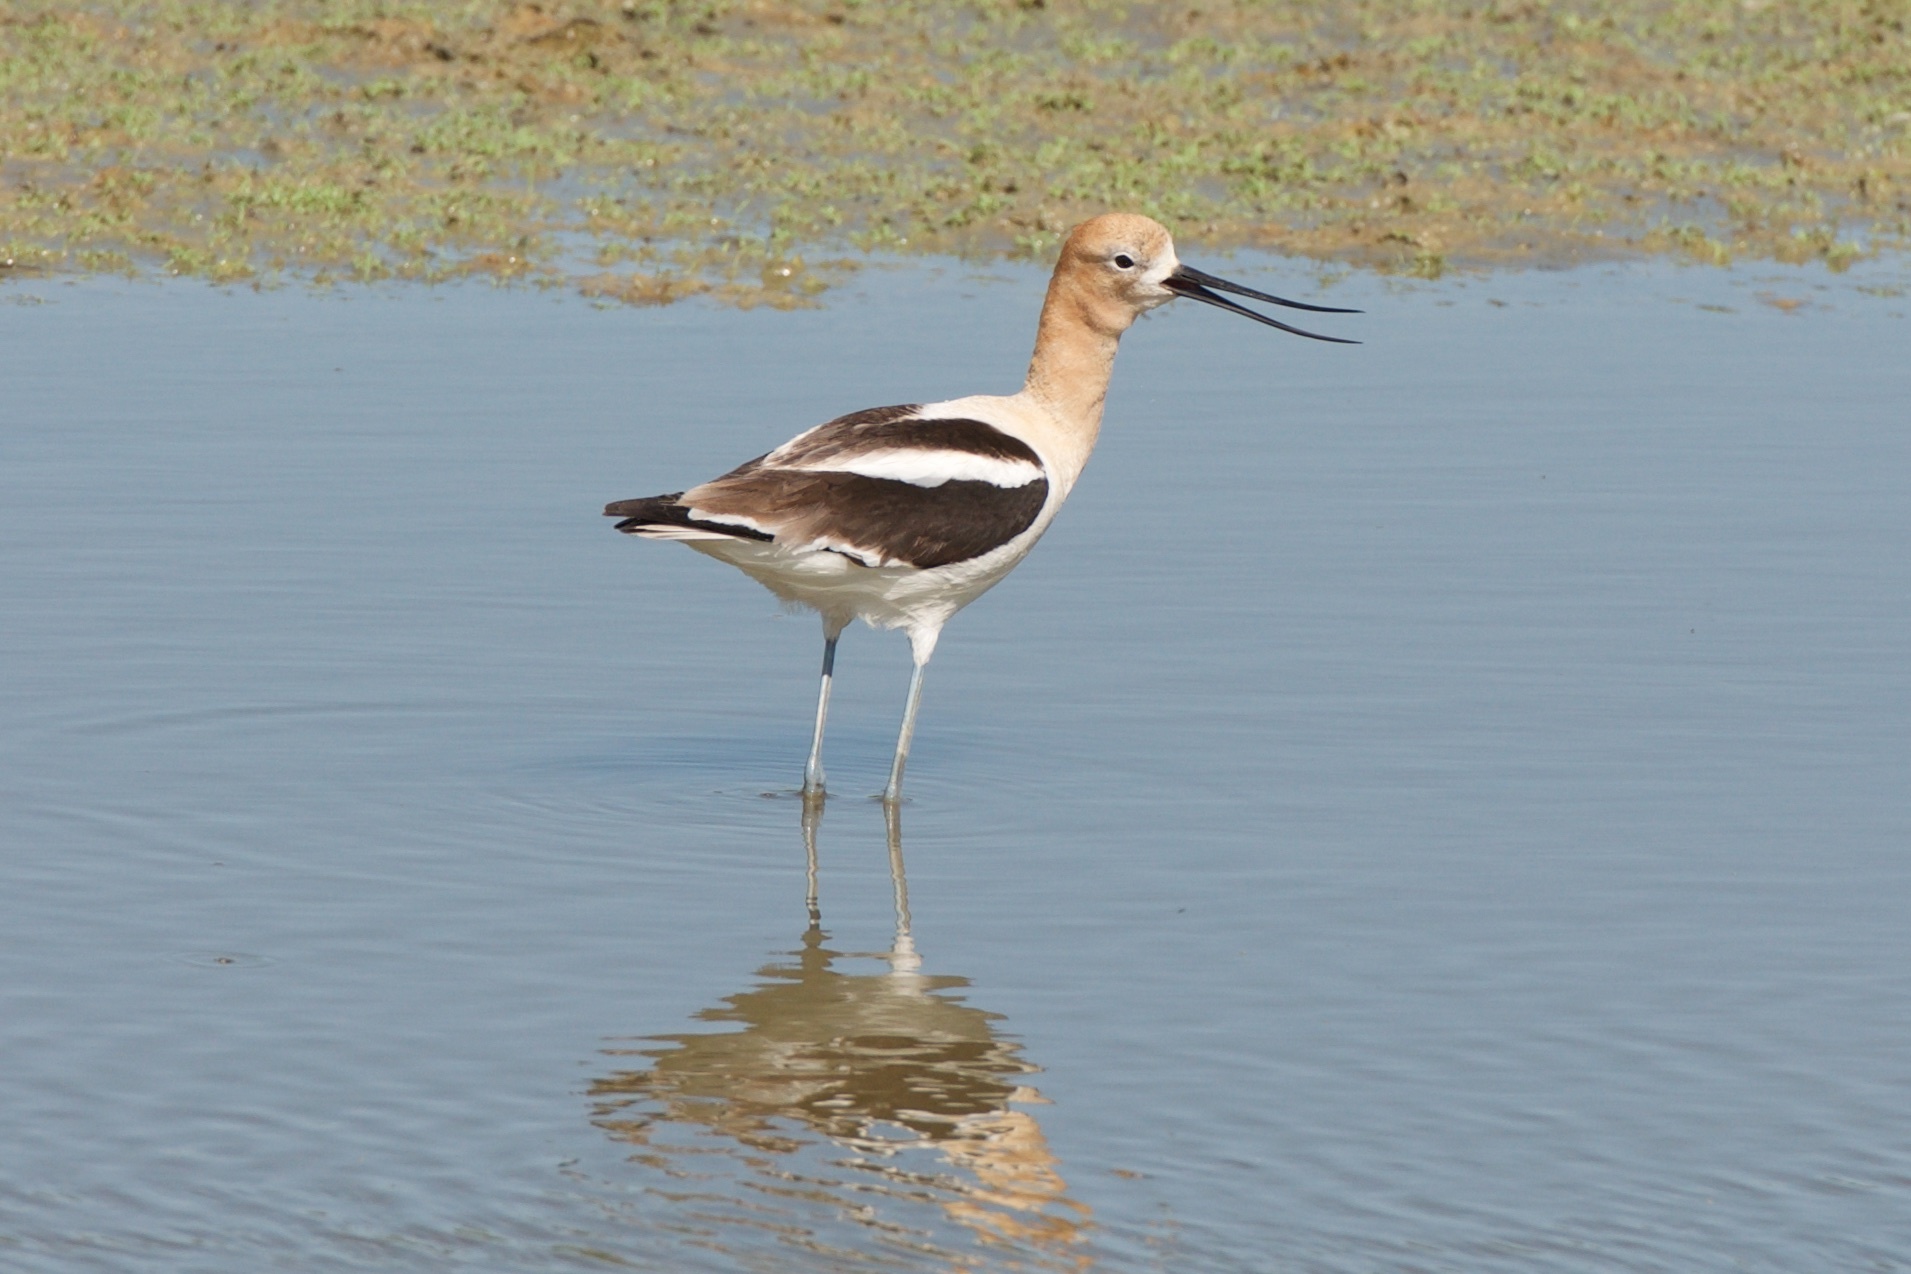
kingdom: Animalia
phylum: Chordata
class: Aves
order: Charadriiformes
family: Recurvirostridae
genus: Recurvirostra
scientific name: Recurvirostra americana
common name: American avocet
